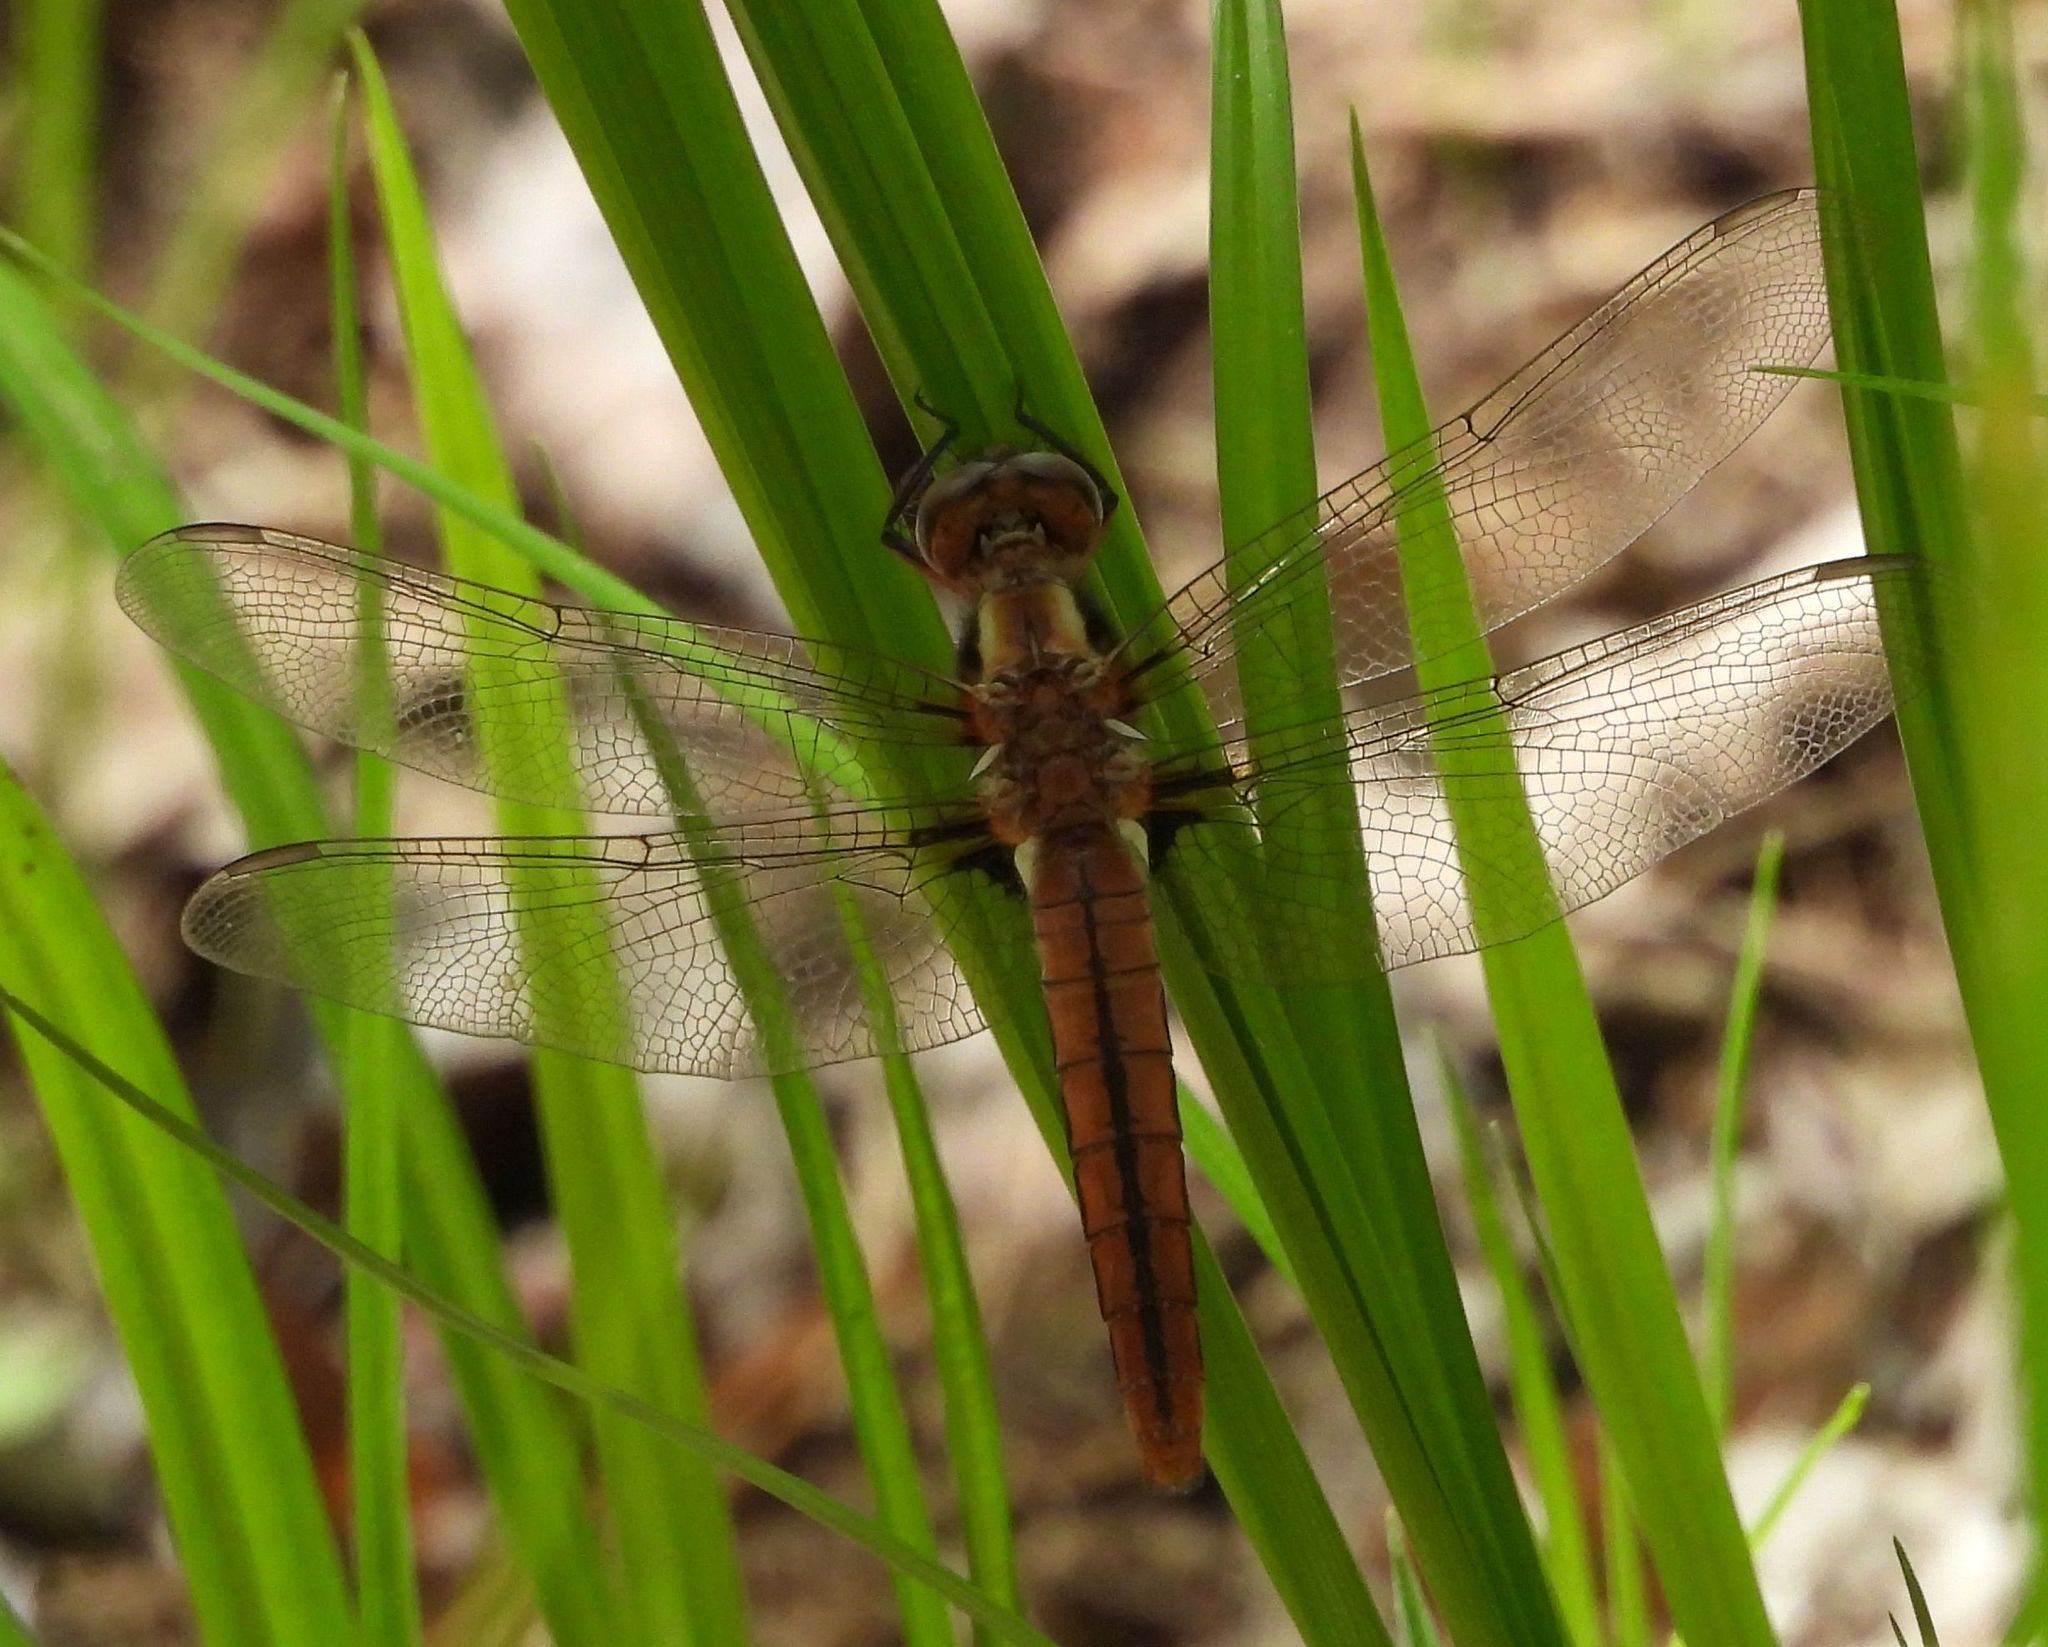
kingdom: Animalia
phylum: Arthropoda
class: Insecta
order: Odonata
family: Libellulidae
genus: Ladona
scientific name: Ladona julia
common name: Chalk-fronted corporal
